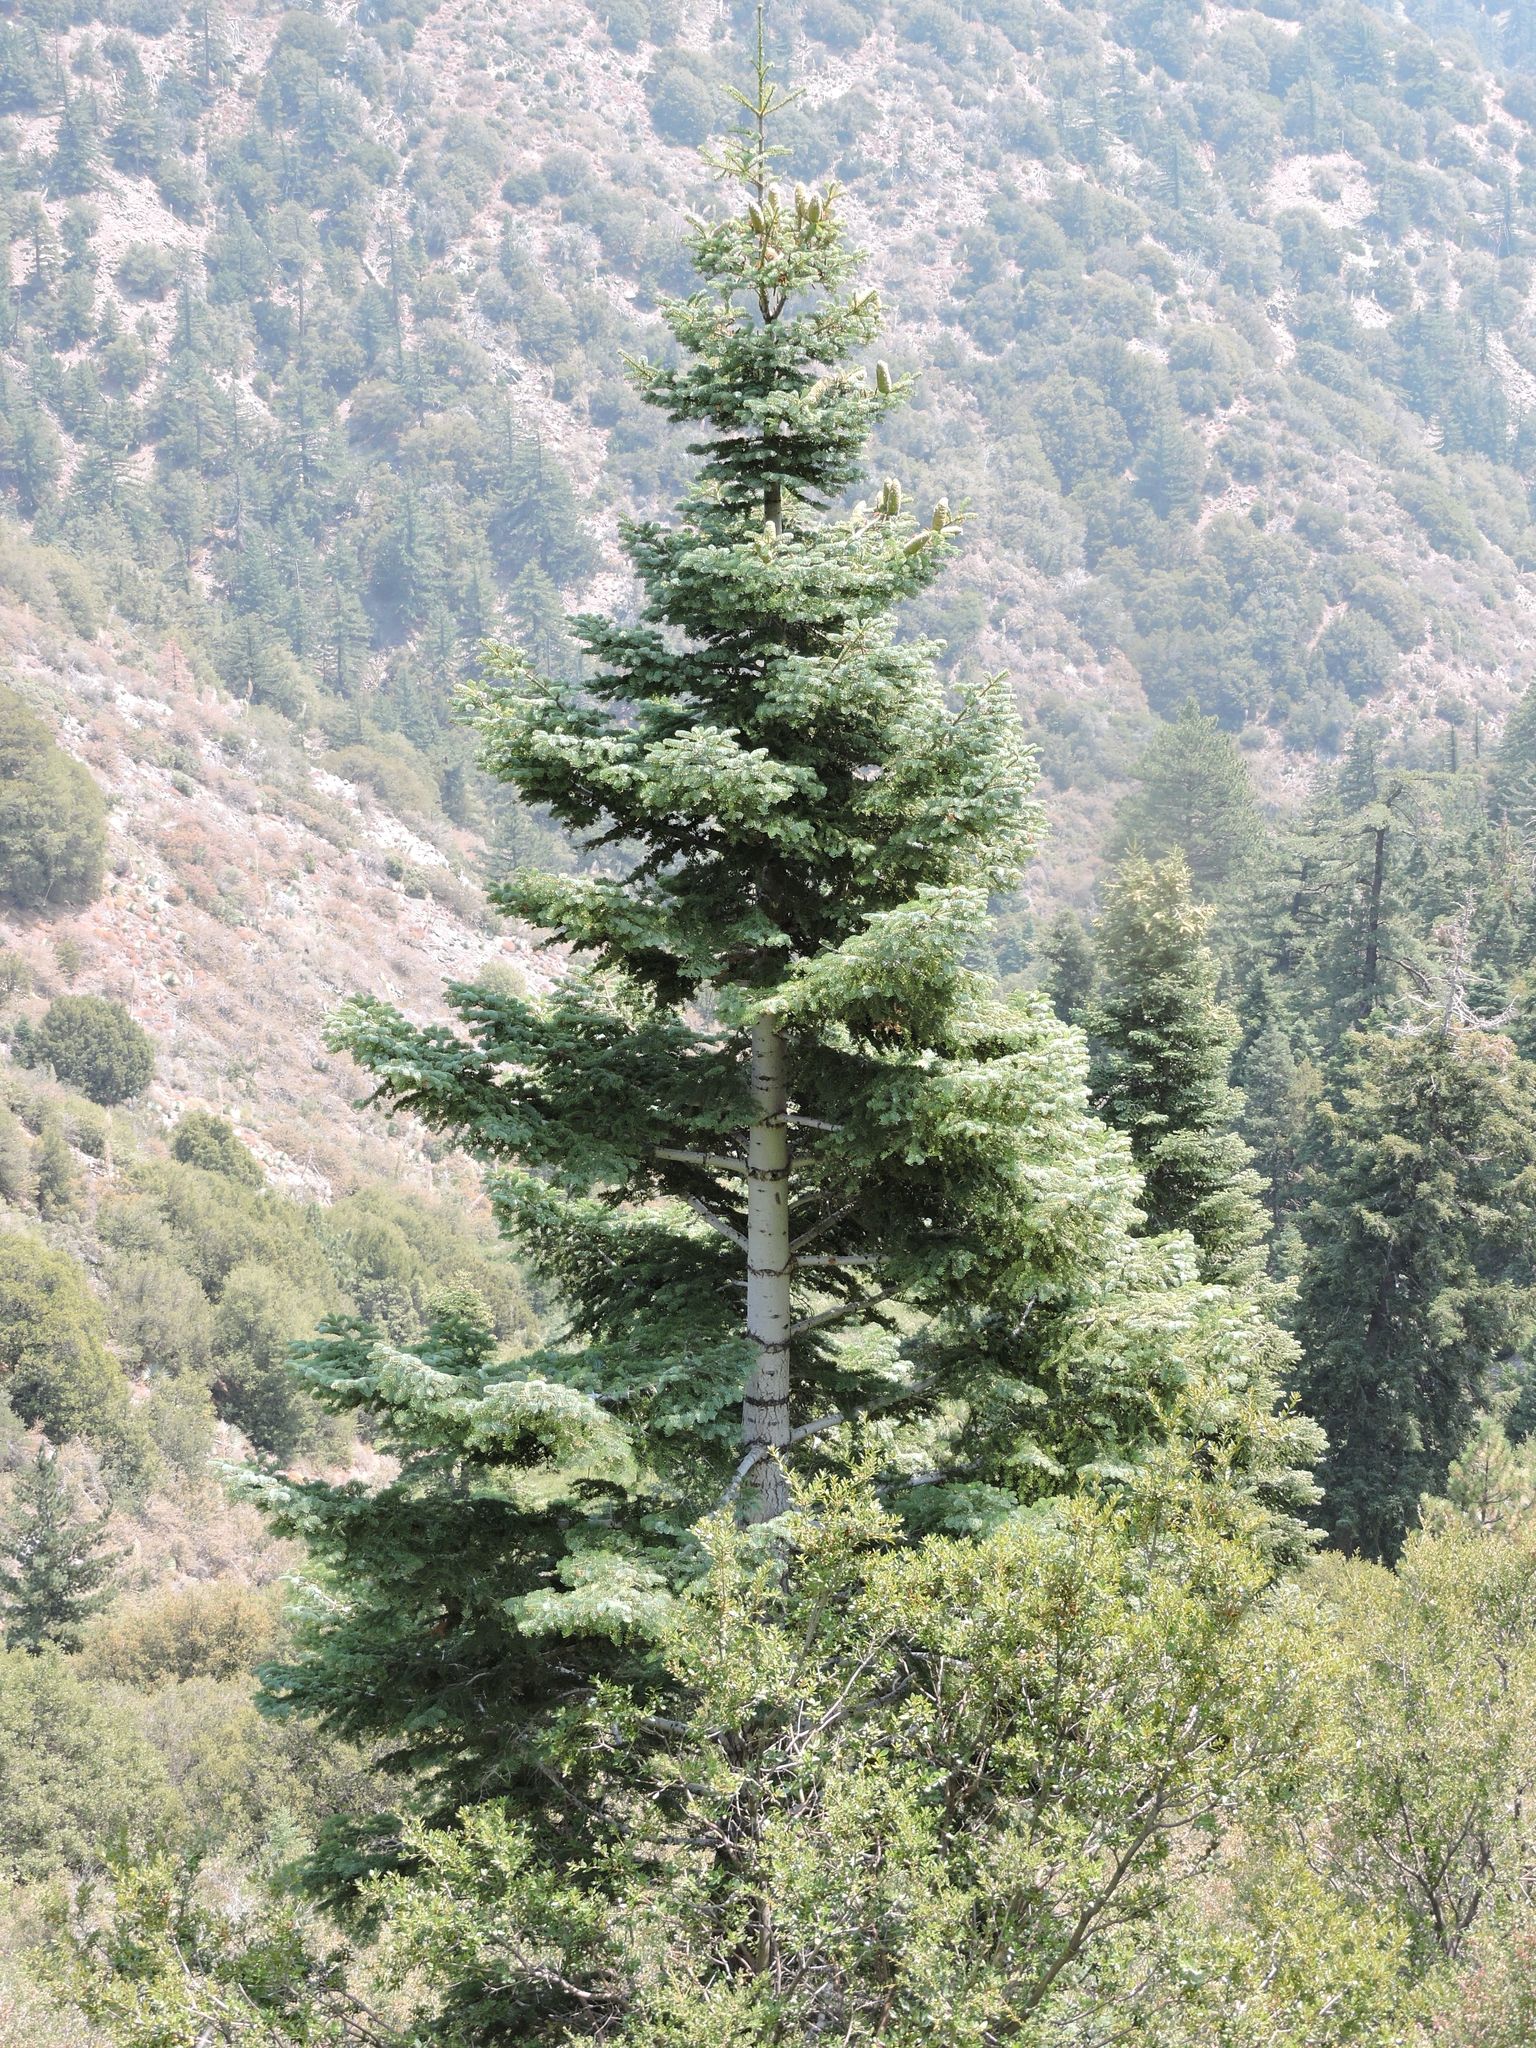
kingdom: Plantae
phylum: Tracheophyta
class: Pinopsida
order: Pinales
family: Pinaceae
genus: Abies
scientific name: Abies concolor
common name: Colorado fir
